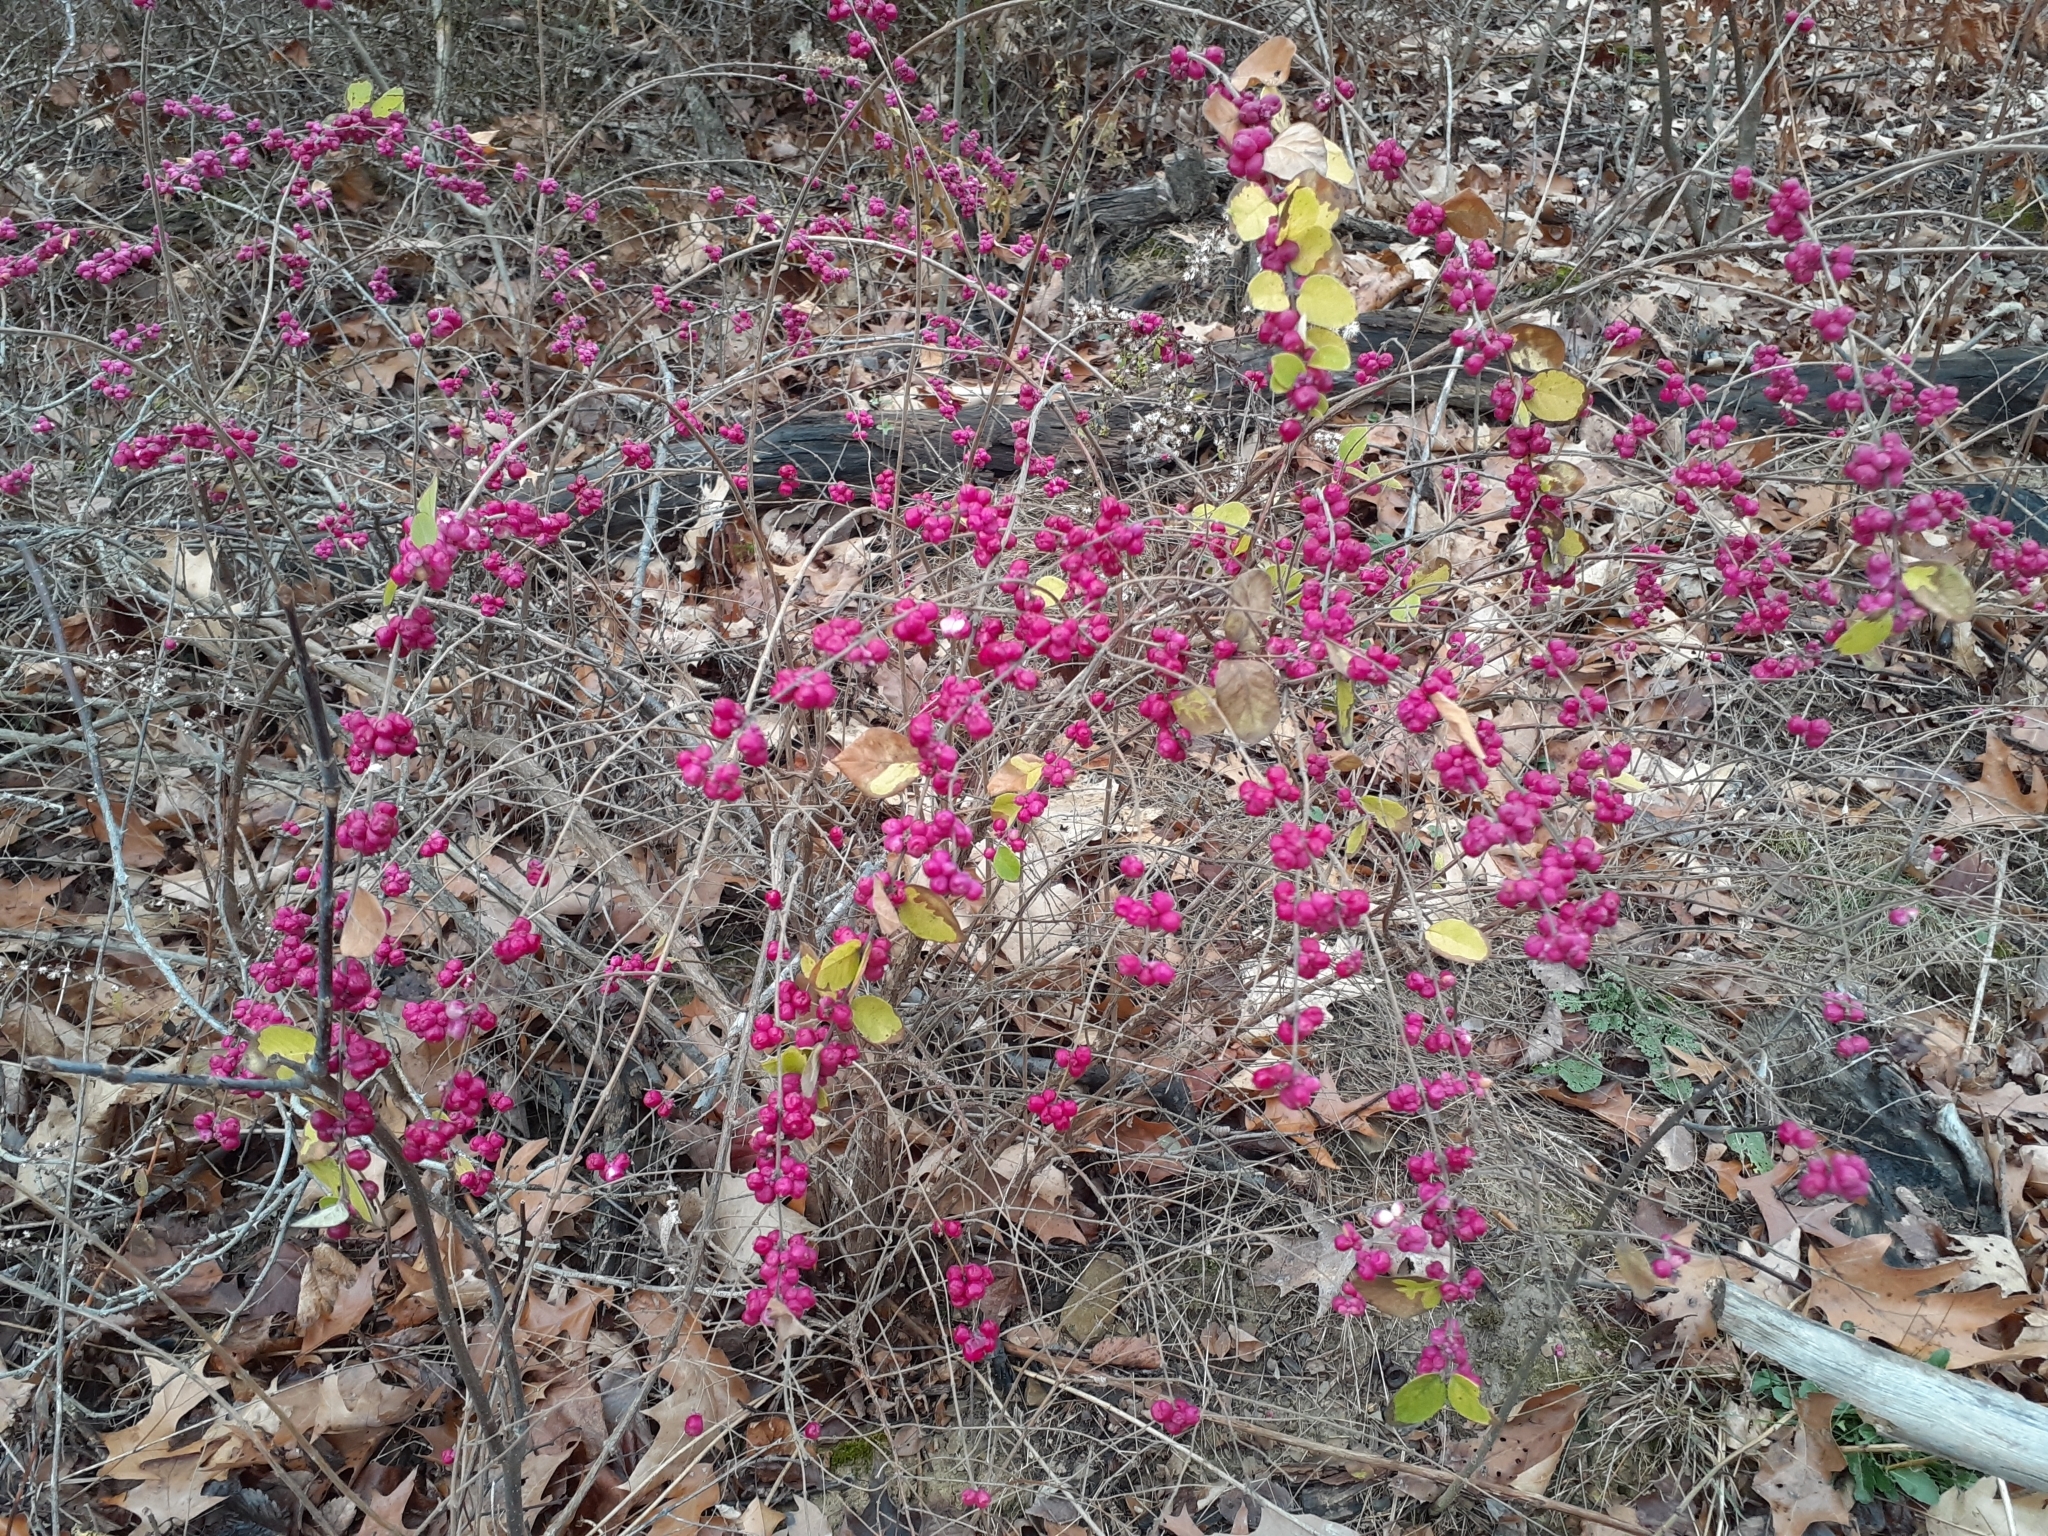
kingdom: Plantae
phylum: Tracheophyta
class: Magnoliopsida
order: Dipsacales
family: Caprifoliaceae
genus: Symphoricarpos
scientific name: Symphoricarpos orbiculatus
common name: Coralberry
